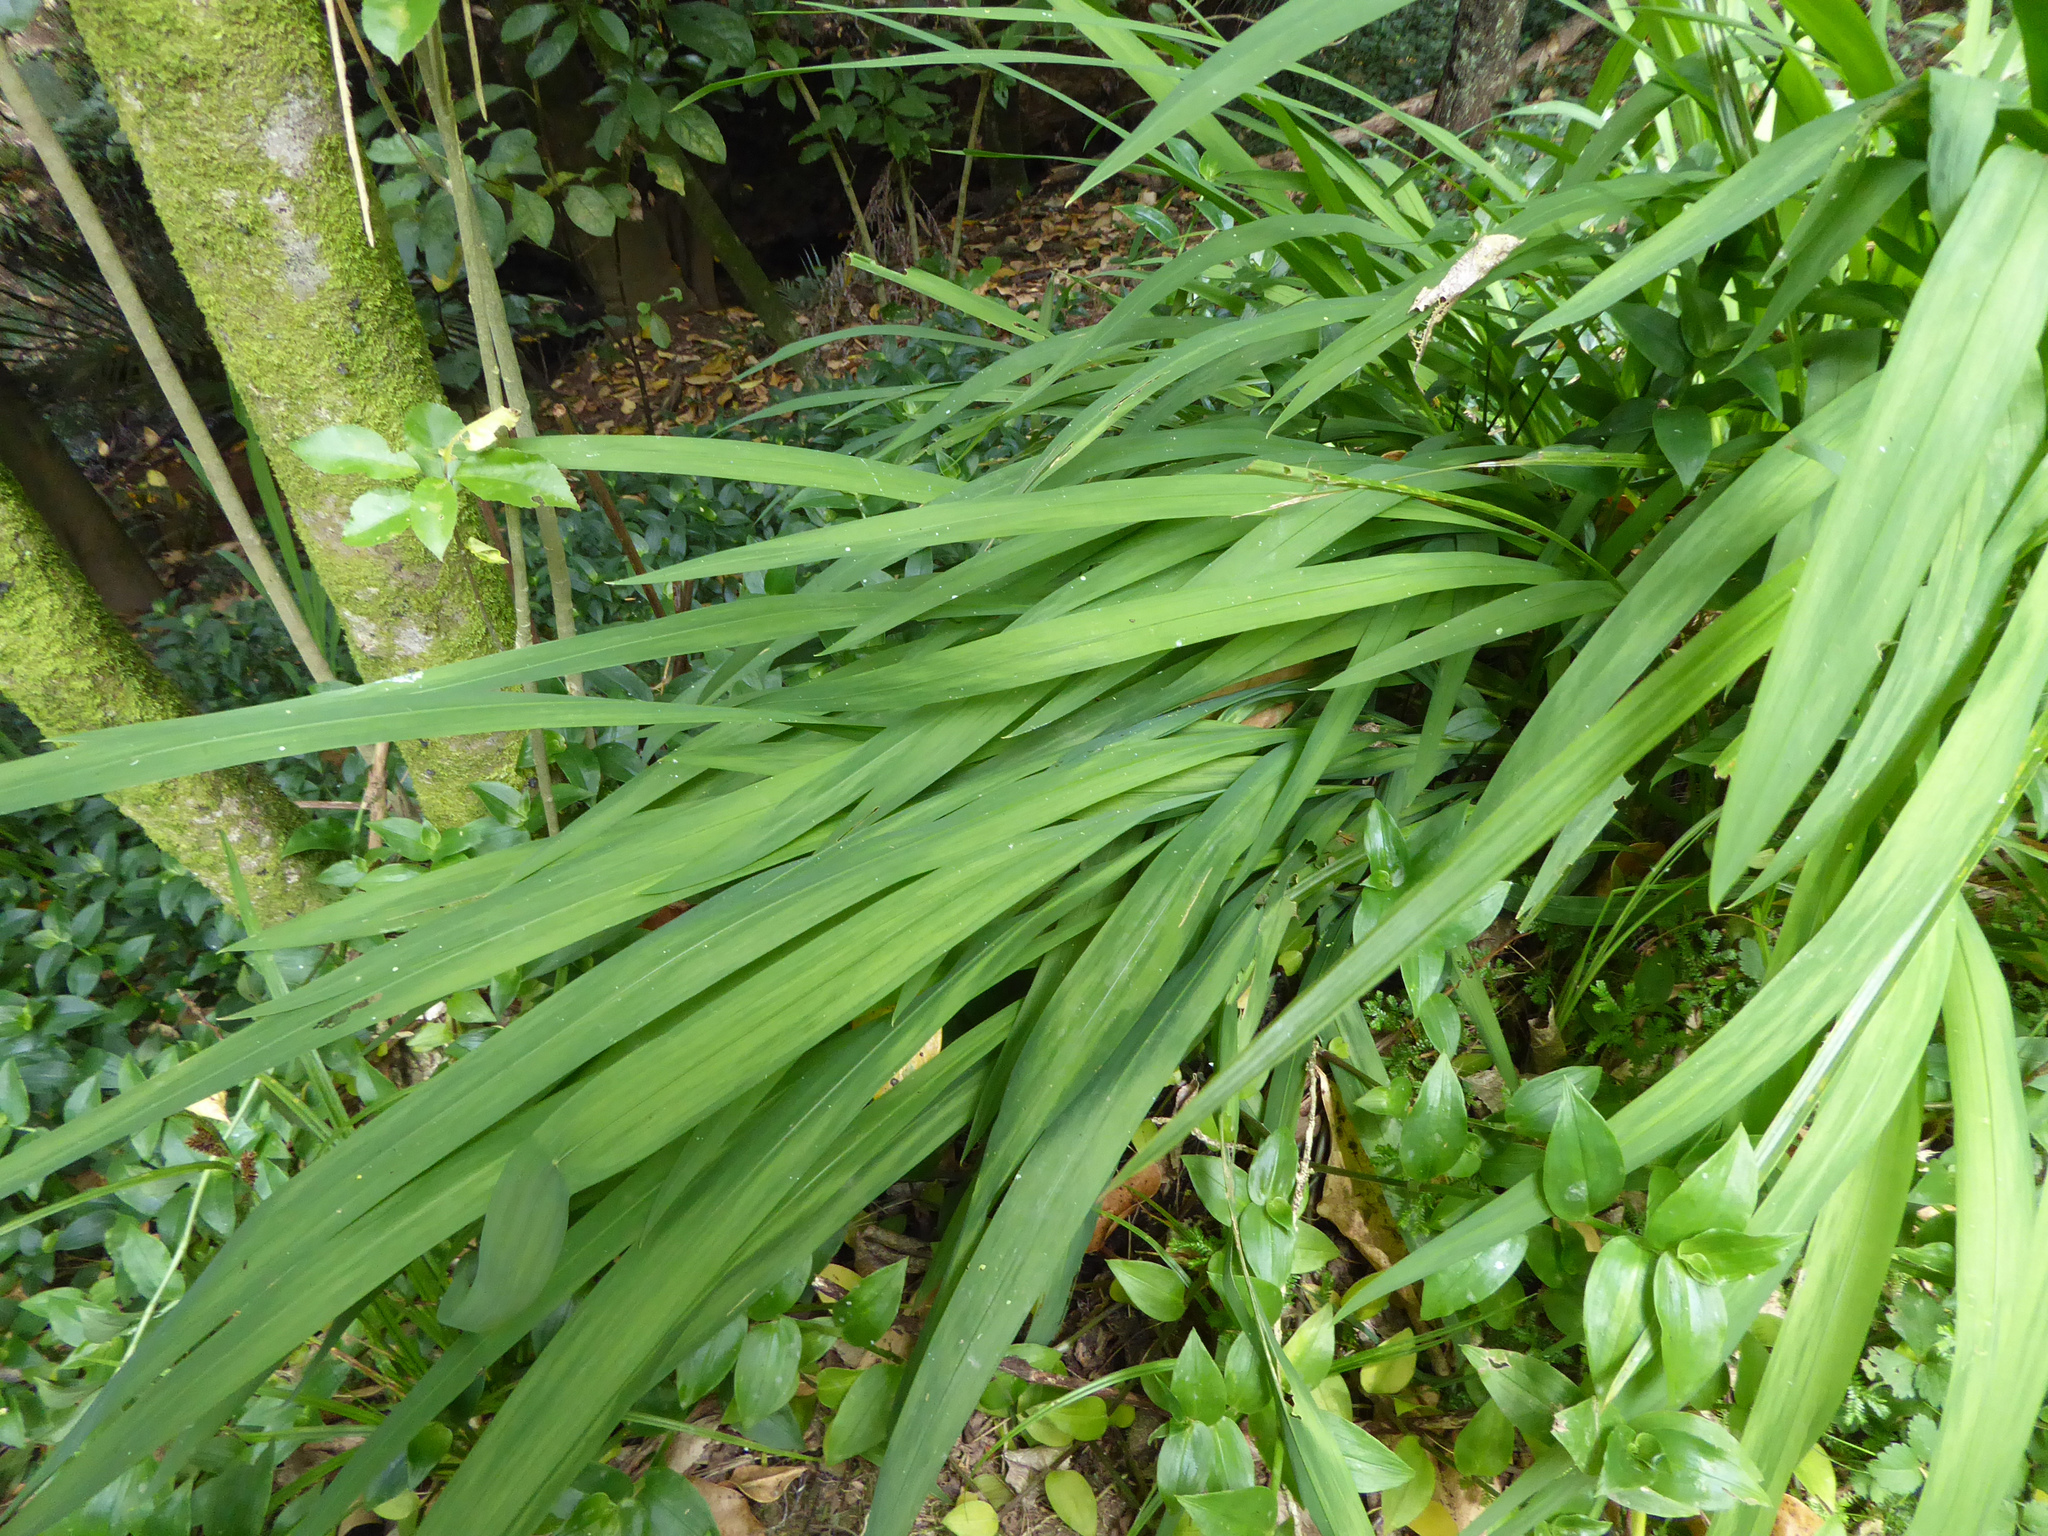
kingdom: Plantae
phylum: Tracheophyta
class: Liliopsida
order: Asparagales
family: Iridaceae
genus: Crocosmia
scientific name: Crocosmia crocosmiiflora
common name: Montbretia
